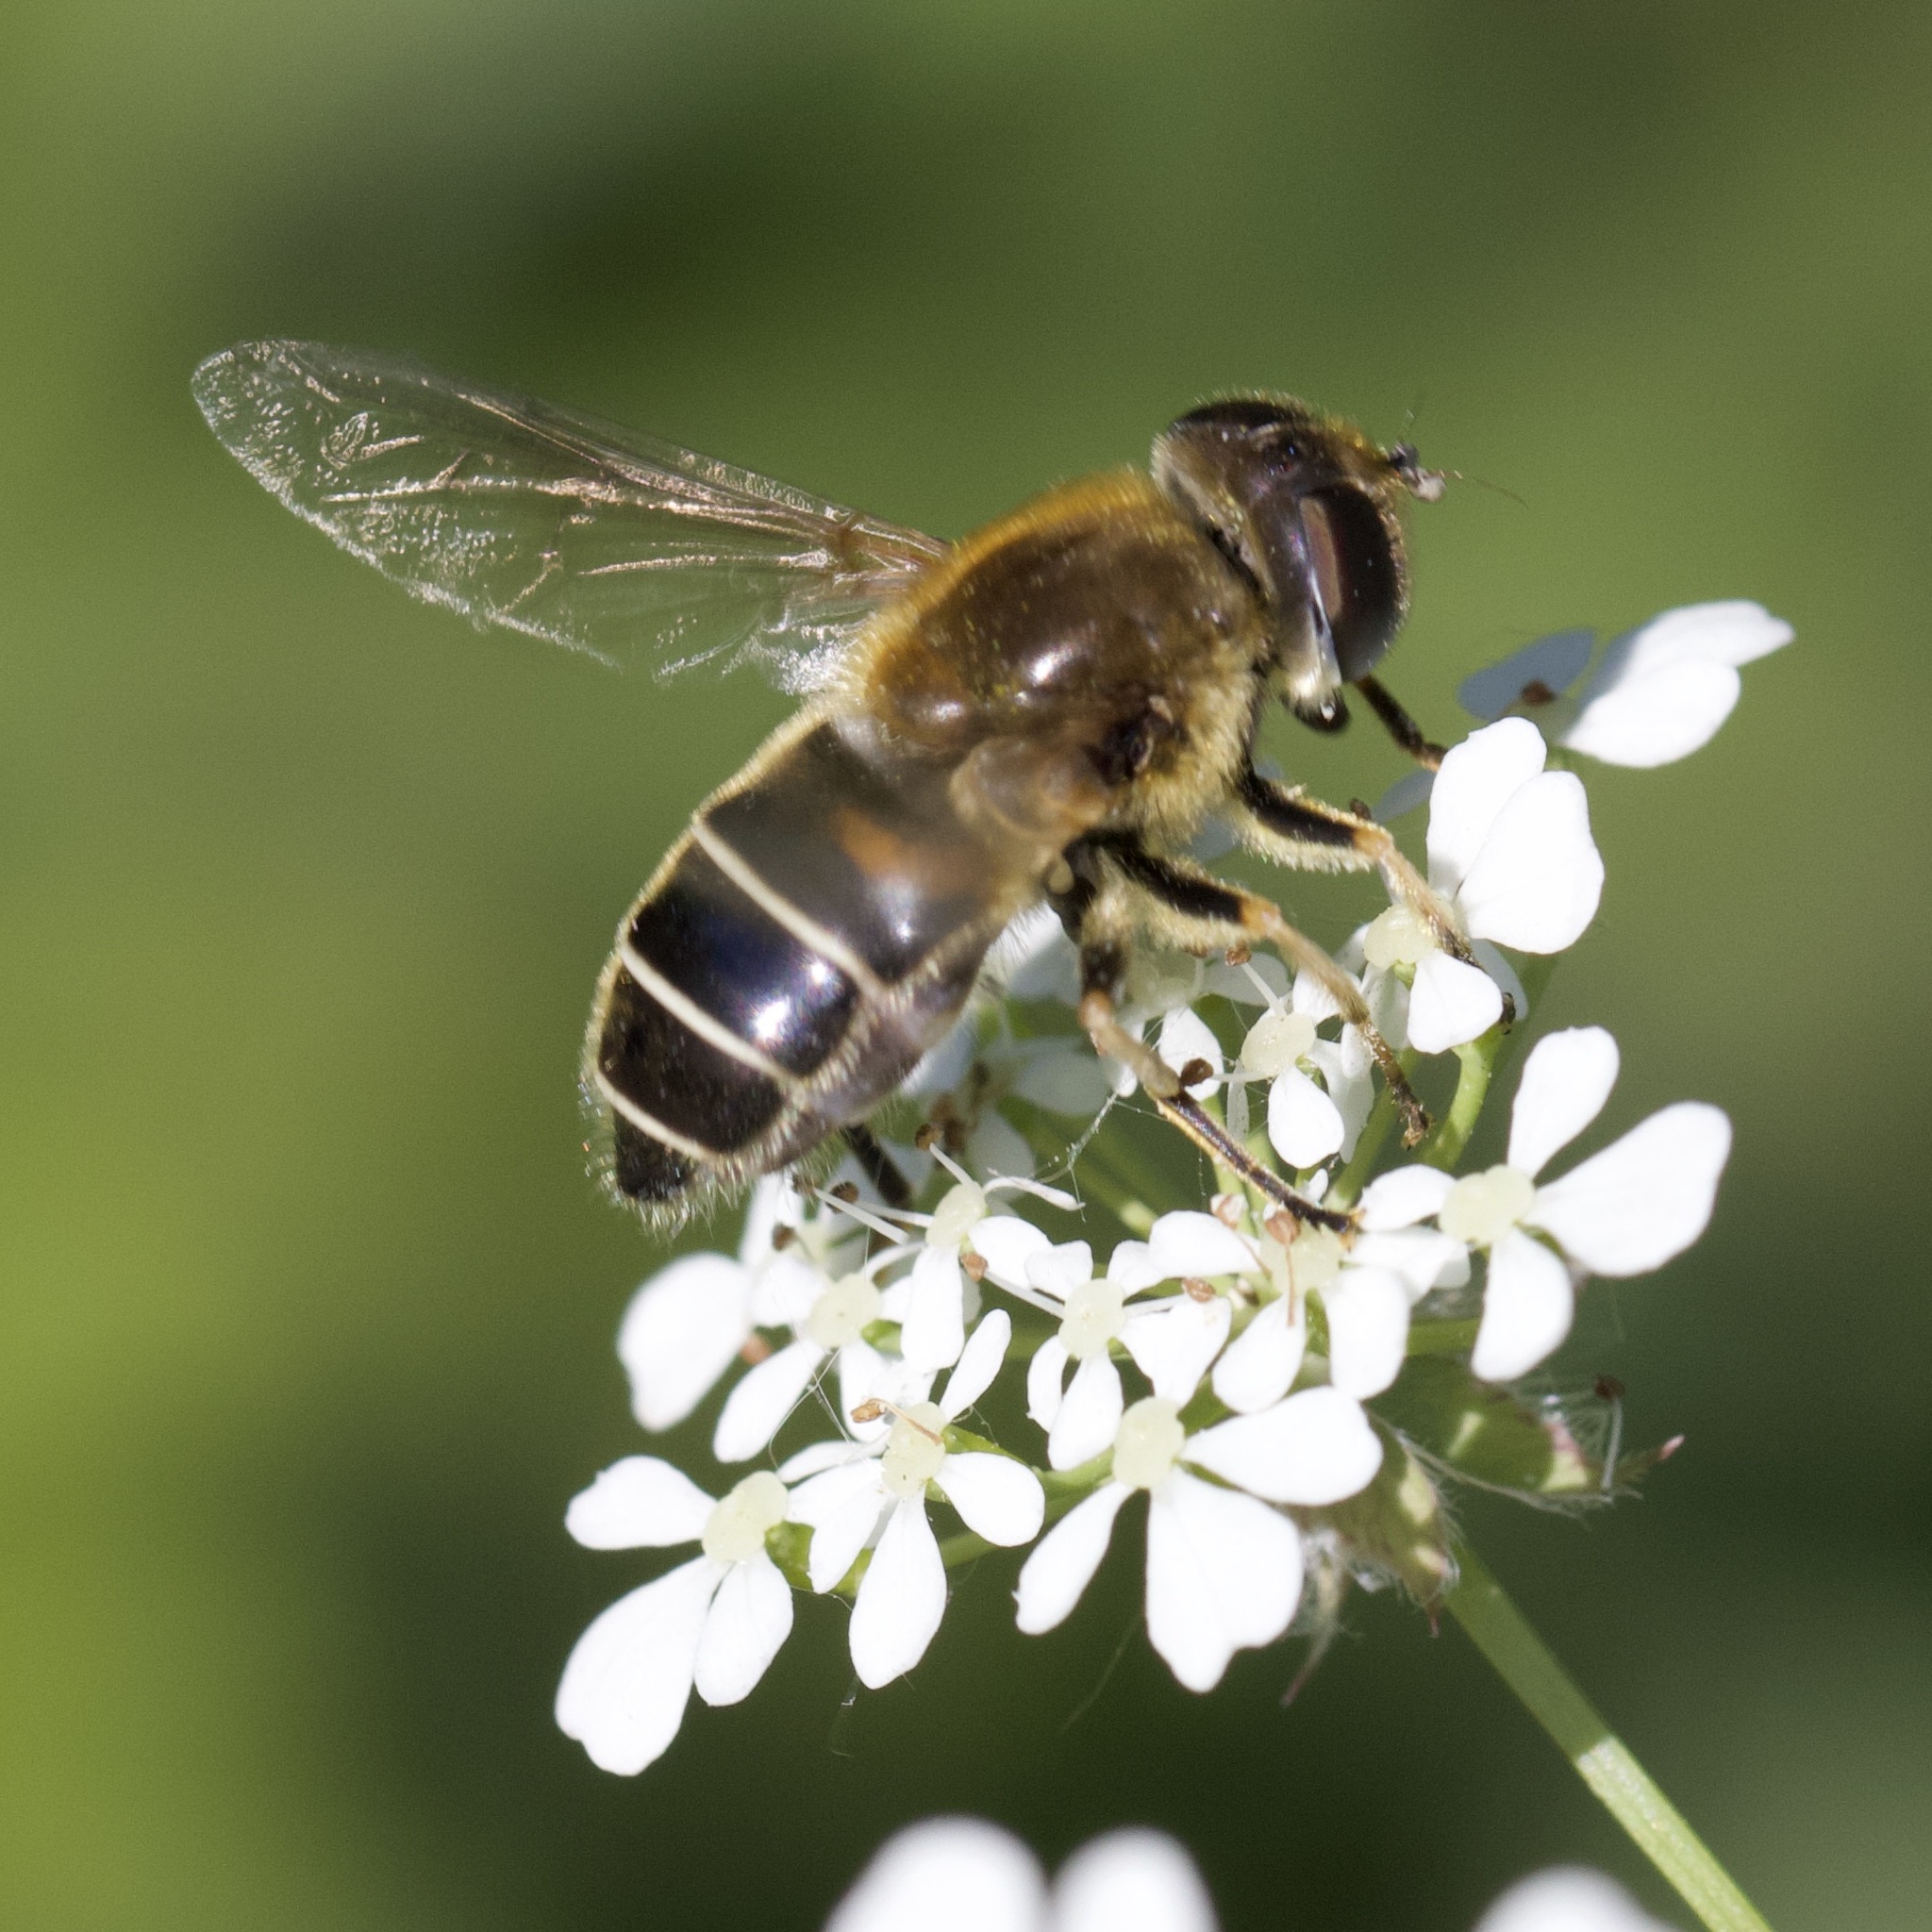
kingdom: Animalia
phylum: Arthropoda
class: Insecta
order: Diptera
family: Syrphidae
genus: Eristalis
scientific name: Eristalis nemorum
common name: Orange-spined drone fly
